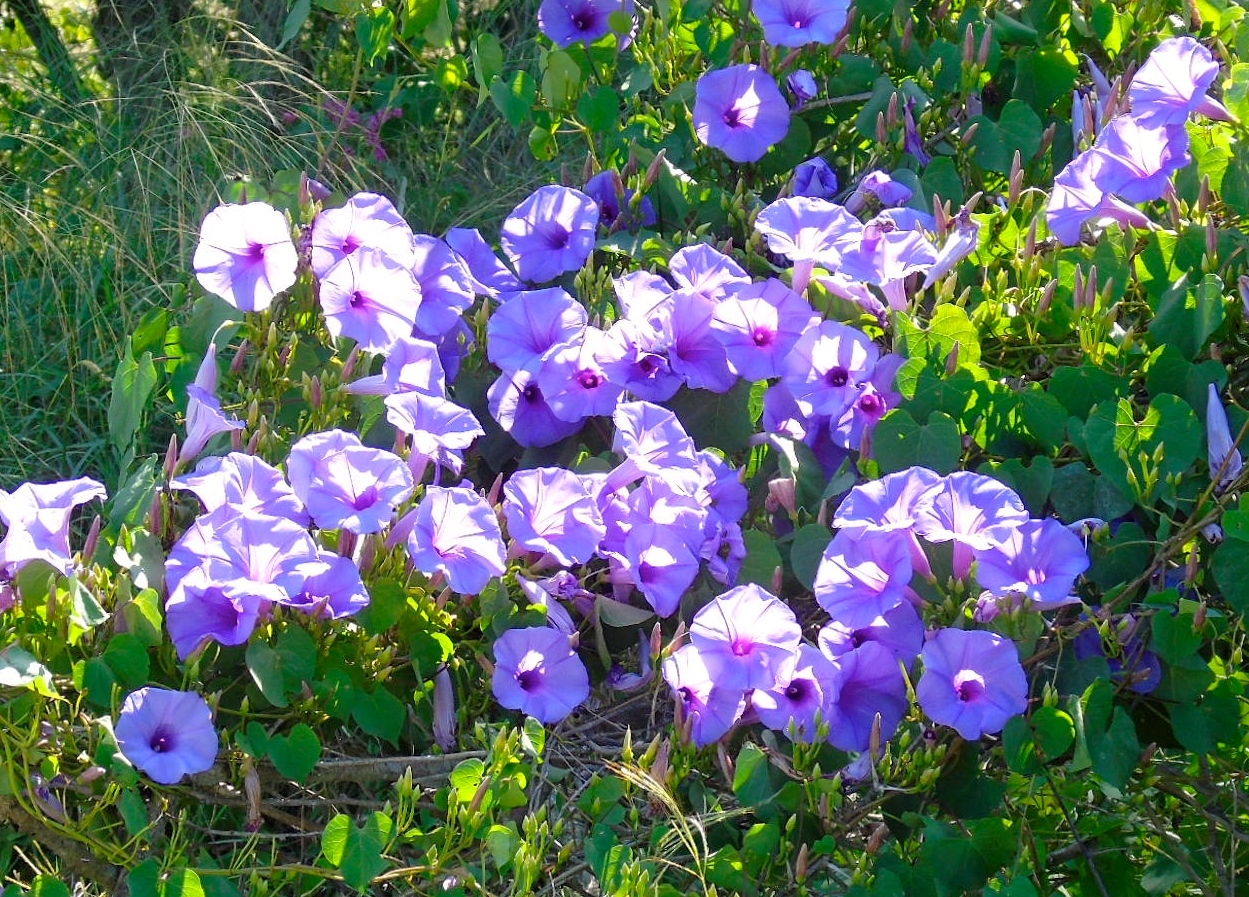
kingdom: Plantae
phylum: Tracheophyta
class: Magnoliopsida
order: Solanales
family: Convolvulaceae
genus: Ipomoea
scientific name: Ipomoea pedicellaris
